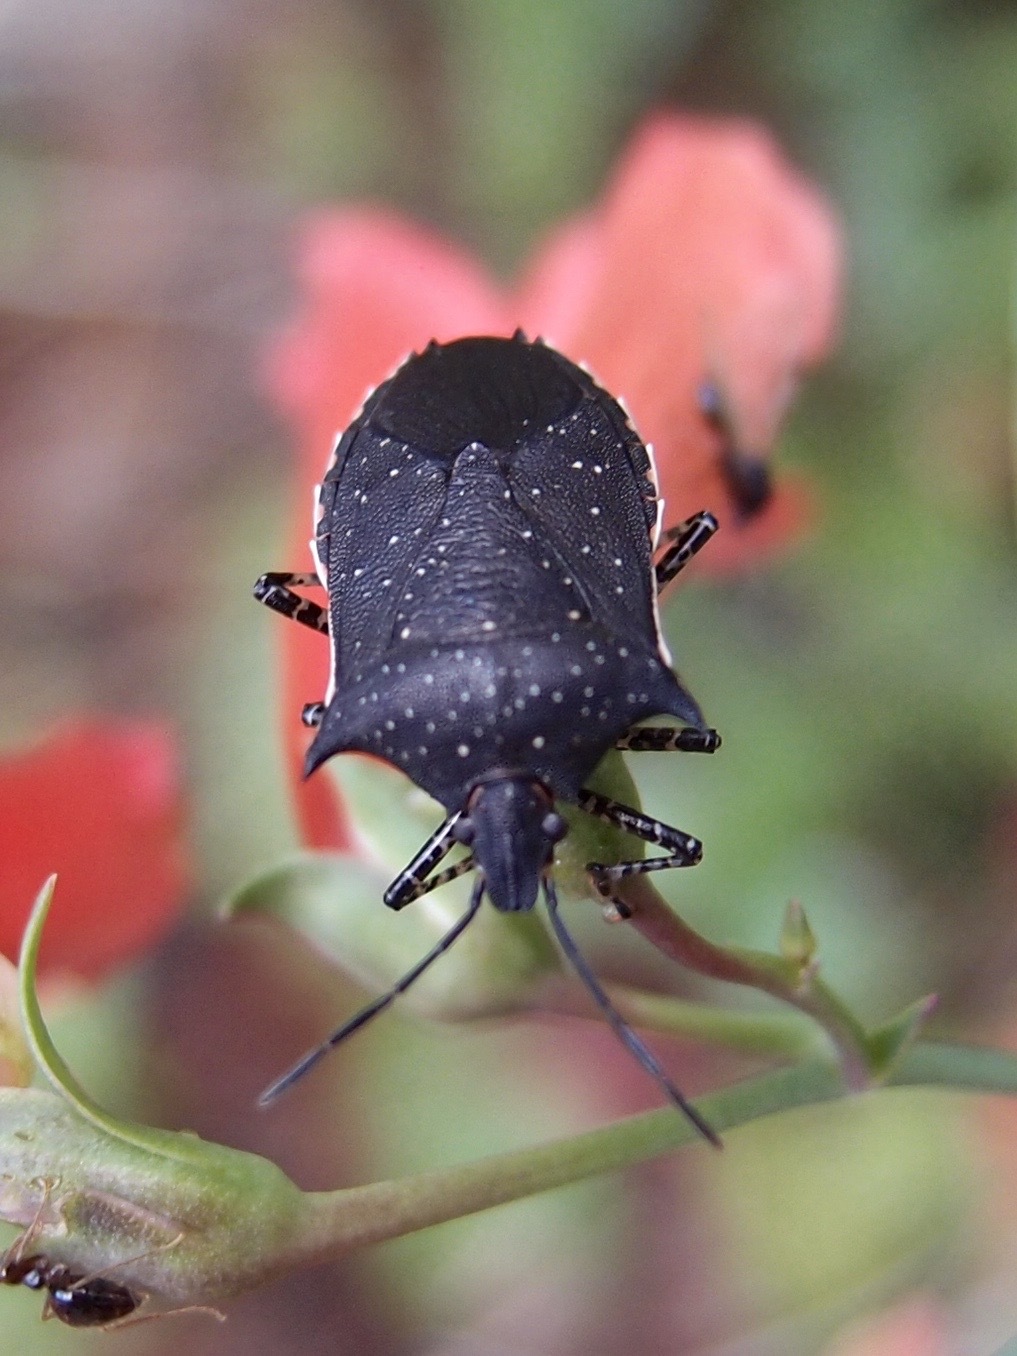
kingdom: Animalia
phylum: Arthropoda
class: Insecta
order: Hemiptera
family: Pentatomidae
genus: Padaeus
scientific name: Padaeus trivittatus
